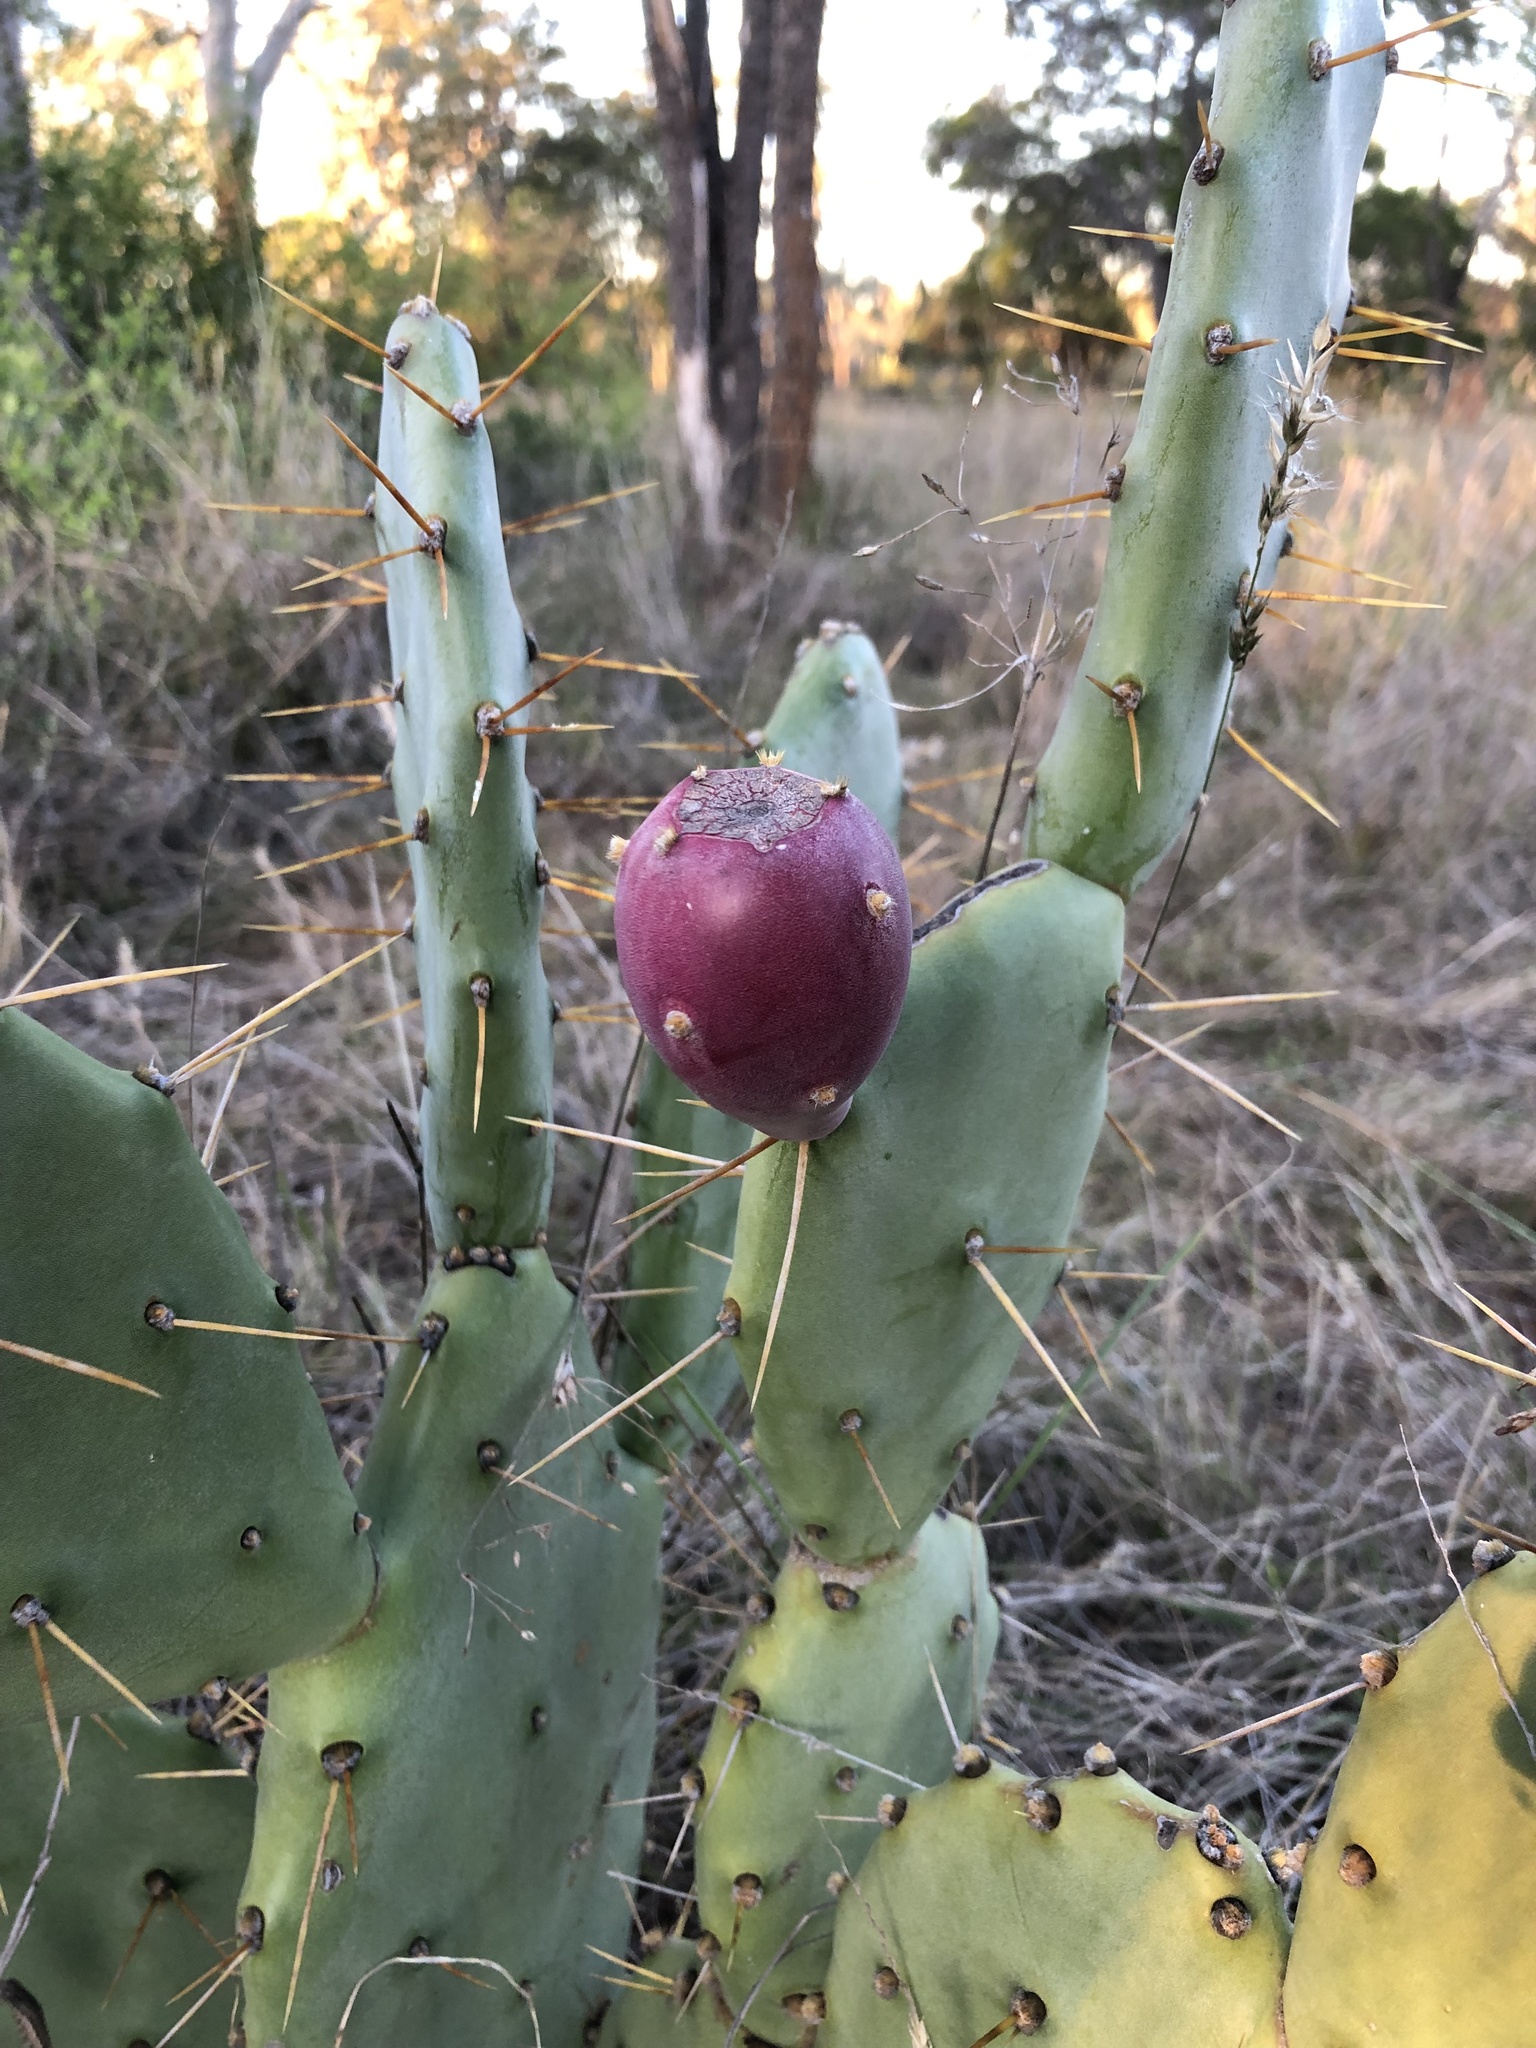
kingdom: Plantae
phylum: Tracheophyta
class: Magnoliopsida
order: Caryophyllales
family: Cactaceae
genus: Opuntia
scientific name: Opuntia stricta
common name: Erect pricklypear
